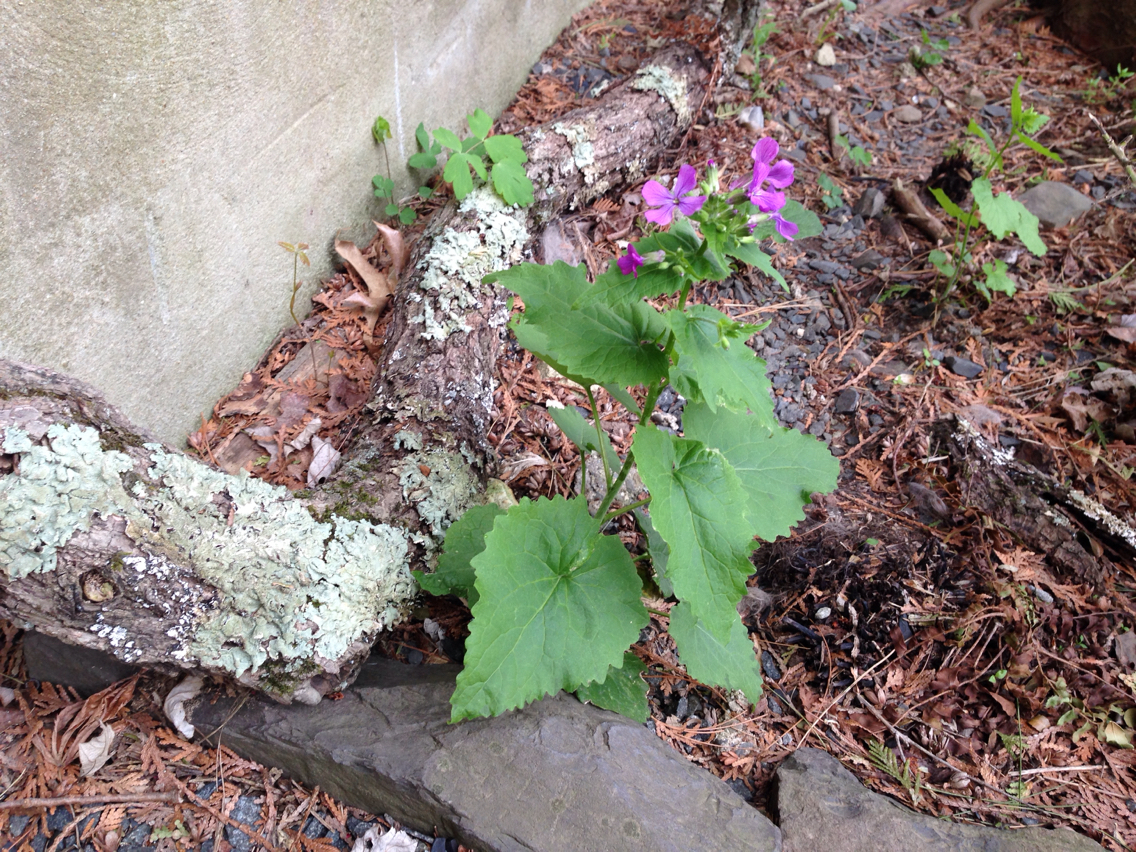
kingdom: Plantae
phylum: Tracheophyta
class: Magnoliopsida
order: Brassicales
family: Brassicaceae
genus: Lunaria
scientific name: Lunaria annua
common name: Honesty
